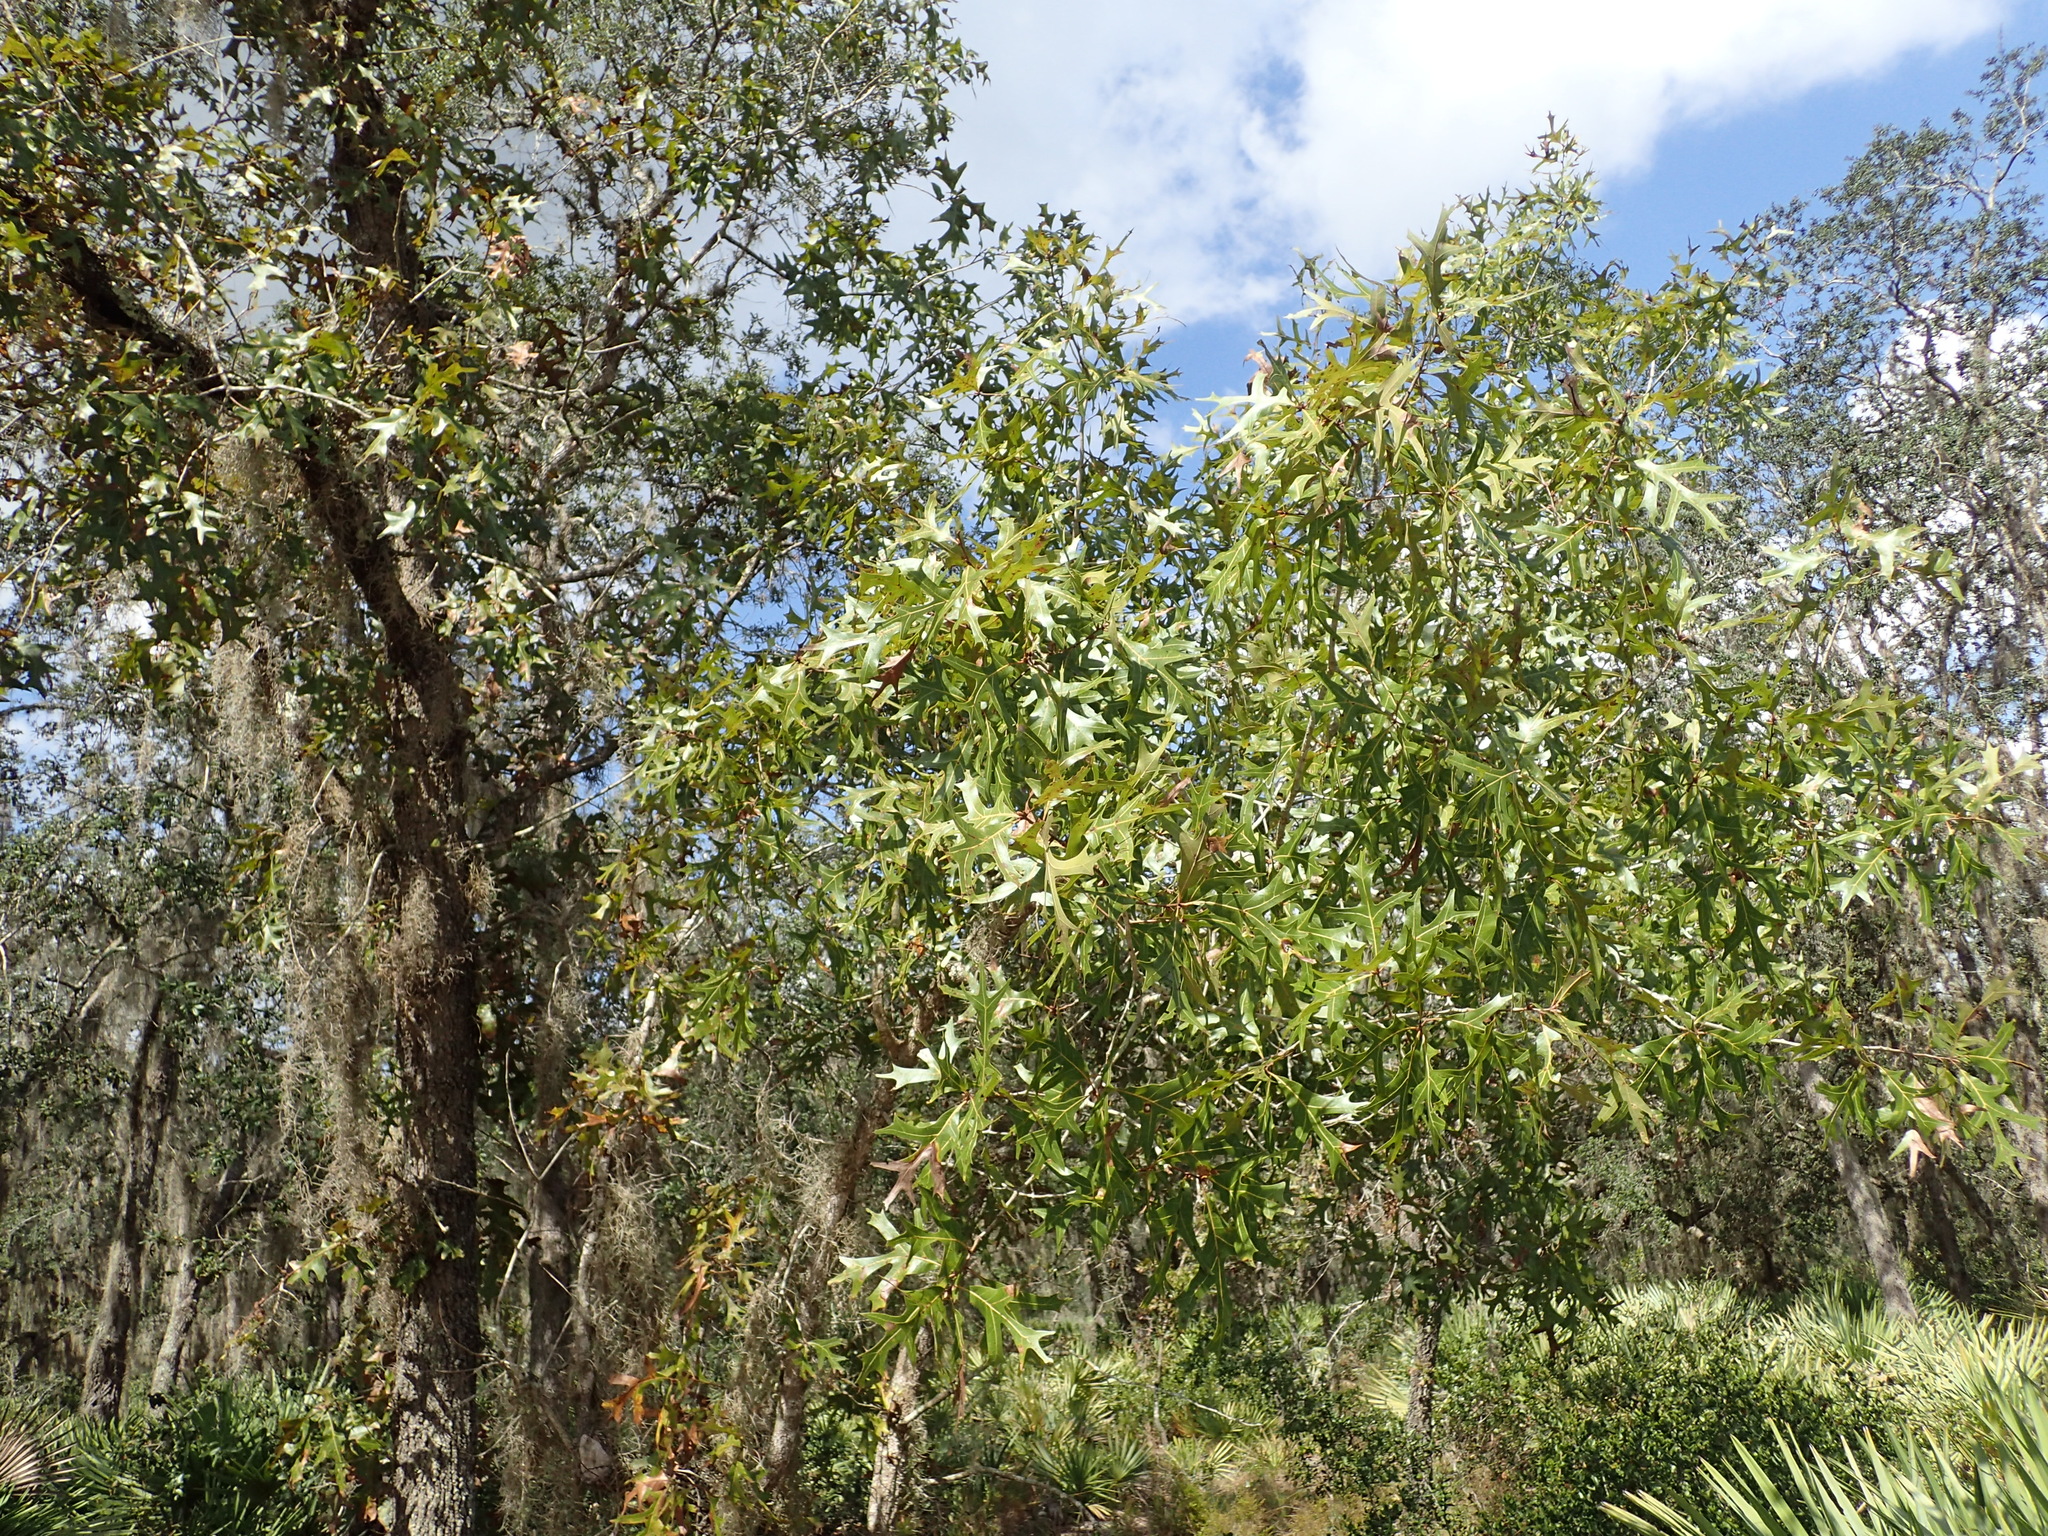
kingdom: Plantae
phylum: Tracheophyta
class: Magnoliopsida
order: Fagales
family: Fagaceae
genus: Quercus
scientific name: Quercus laevis
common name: Turkey oak
